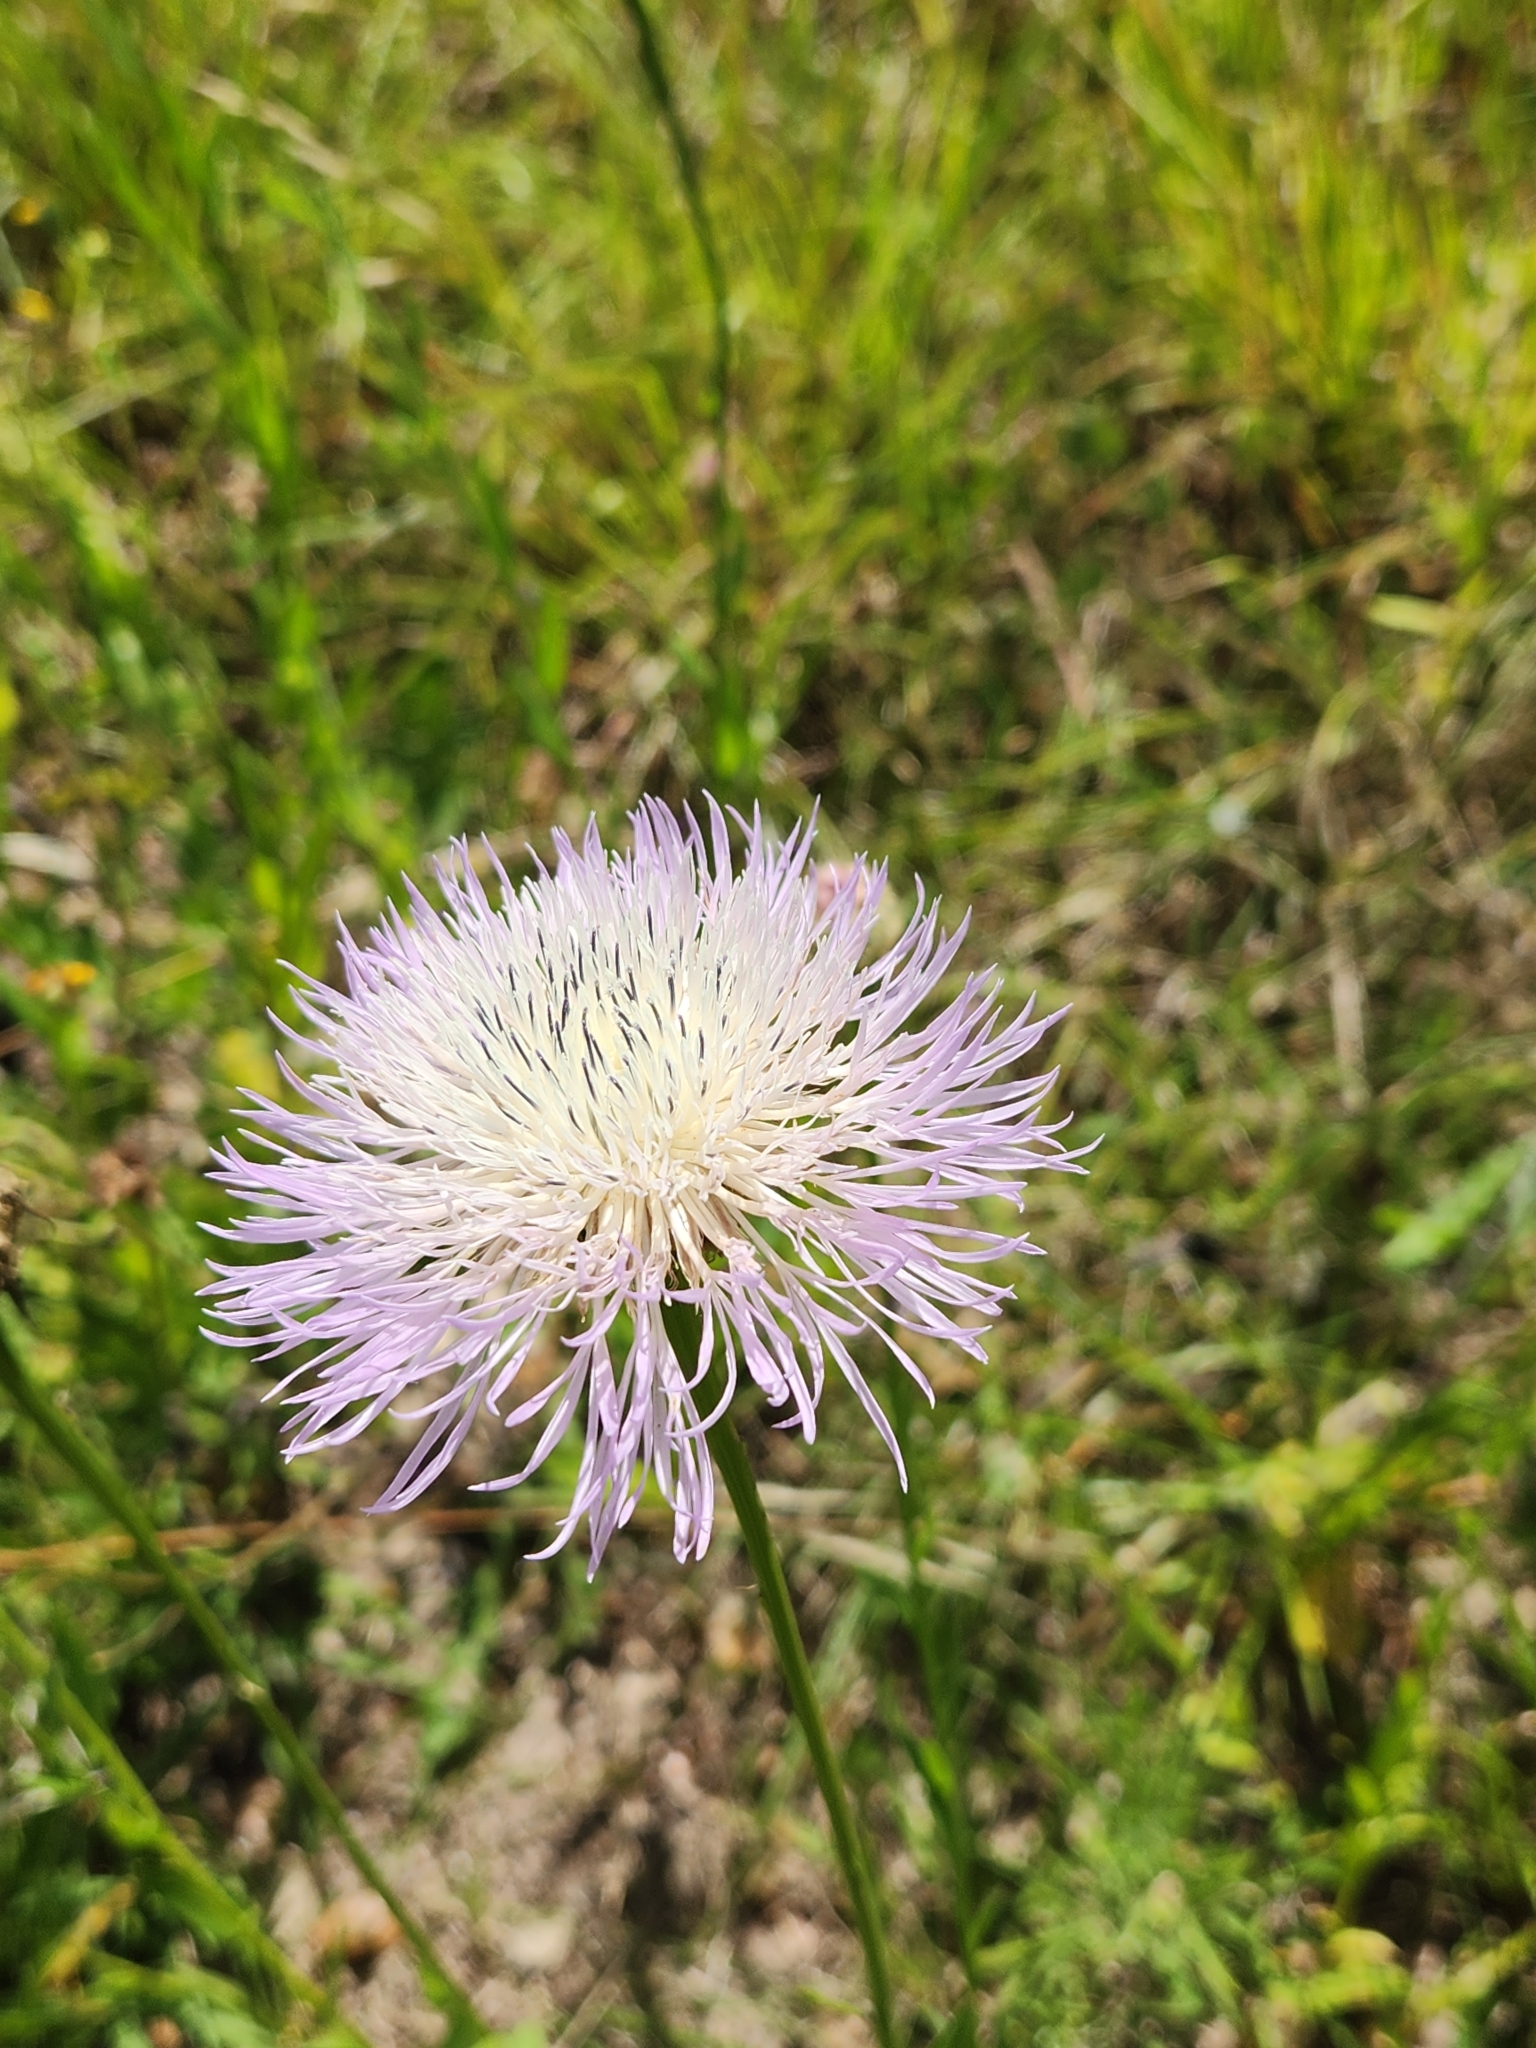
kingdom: Plantae
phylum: Tracheophyta
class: Magnoliopsida
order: Asterales
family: Asteraceae
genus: Plectocephalus
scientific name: Plectocephalus americanus
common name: American basket-flower
